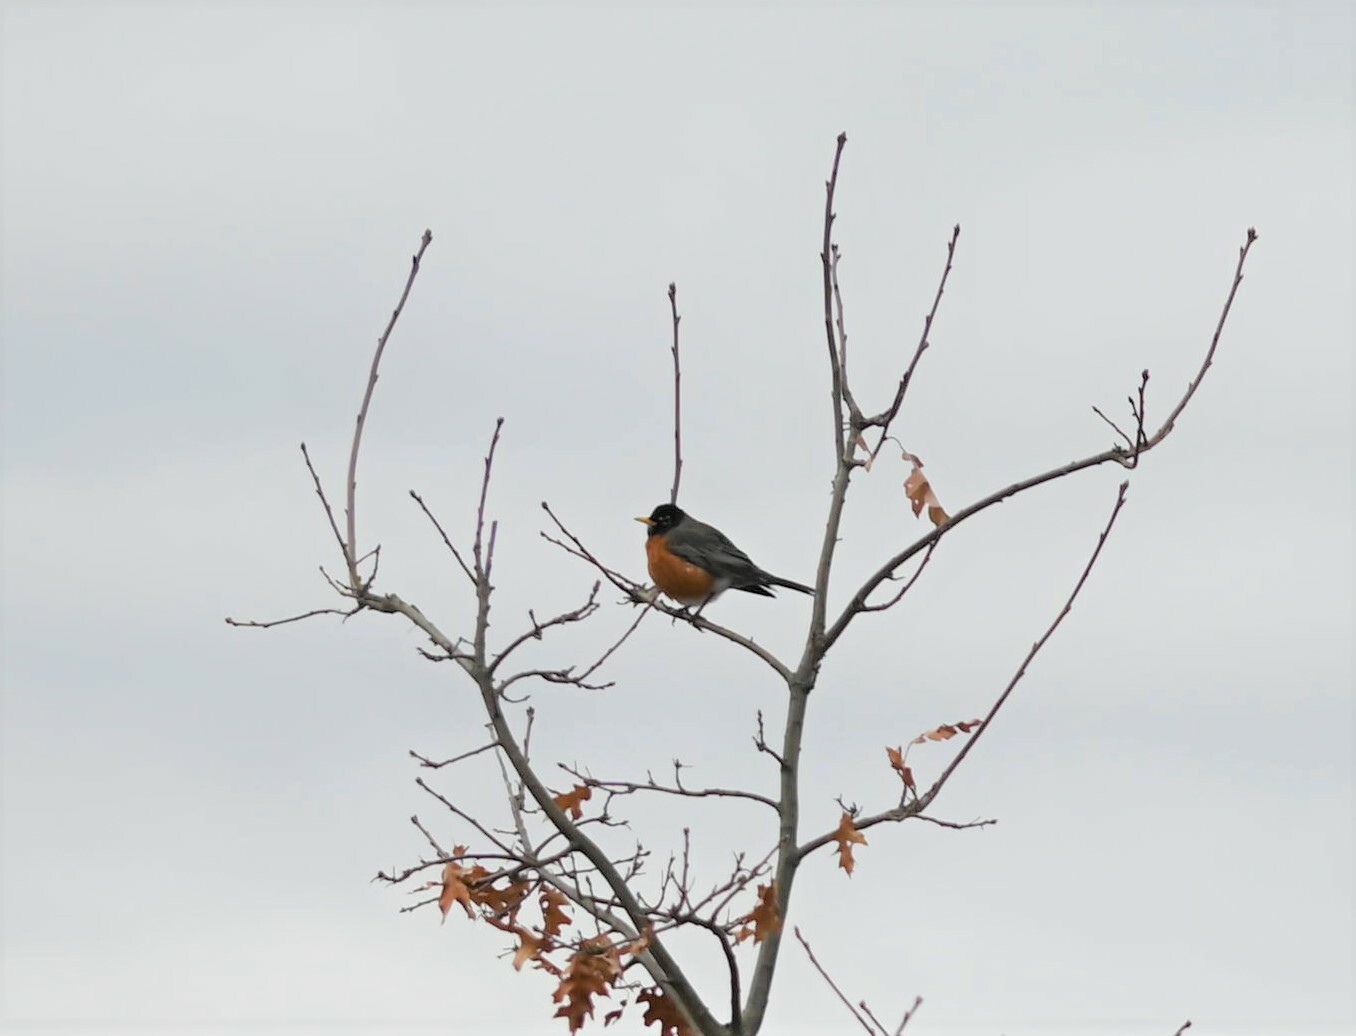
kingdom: Animalia
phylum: Chordata
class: Aves
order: Passeriformes
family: Turdidae
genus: Turdus
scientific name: Turdus migratorius
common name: American robin
